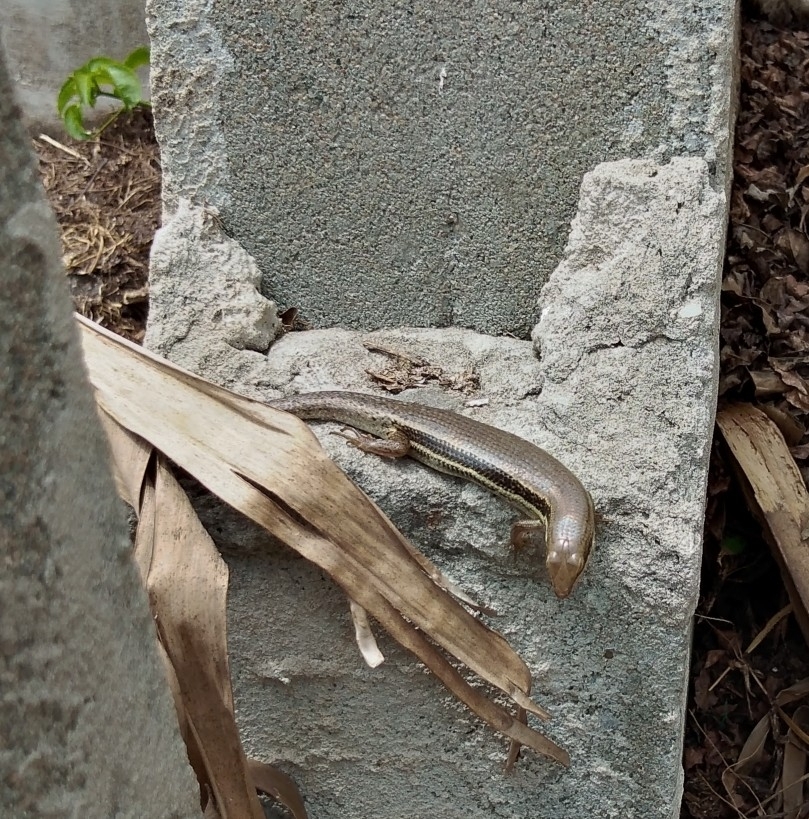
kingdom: Animalia
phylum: Chordata
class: Squamata
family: Scincidae
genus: Trachylepis
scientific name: Trachylepis depressa
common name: Eastern coastal skink
